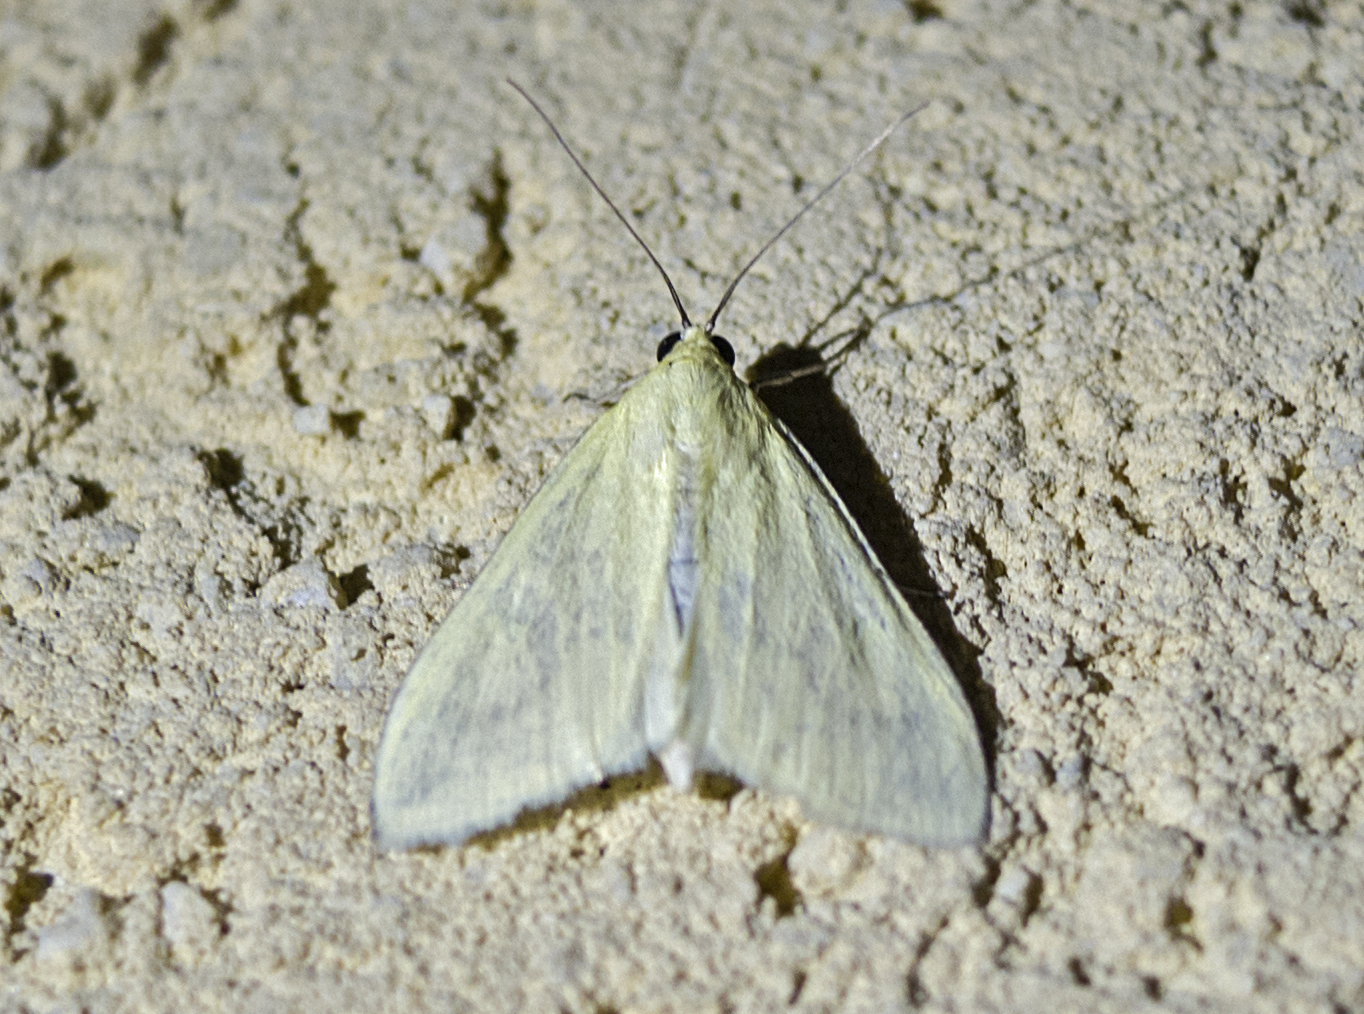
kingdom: Animalia
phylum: Arthropoda
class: Insecta
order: Lepidoptera
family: Crambidae
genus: Sitochroa
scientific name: Sitochroa palealis
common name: Greenish-yellow sitochroa moth
